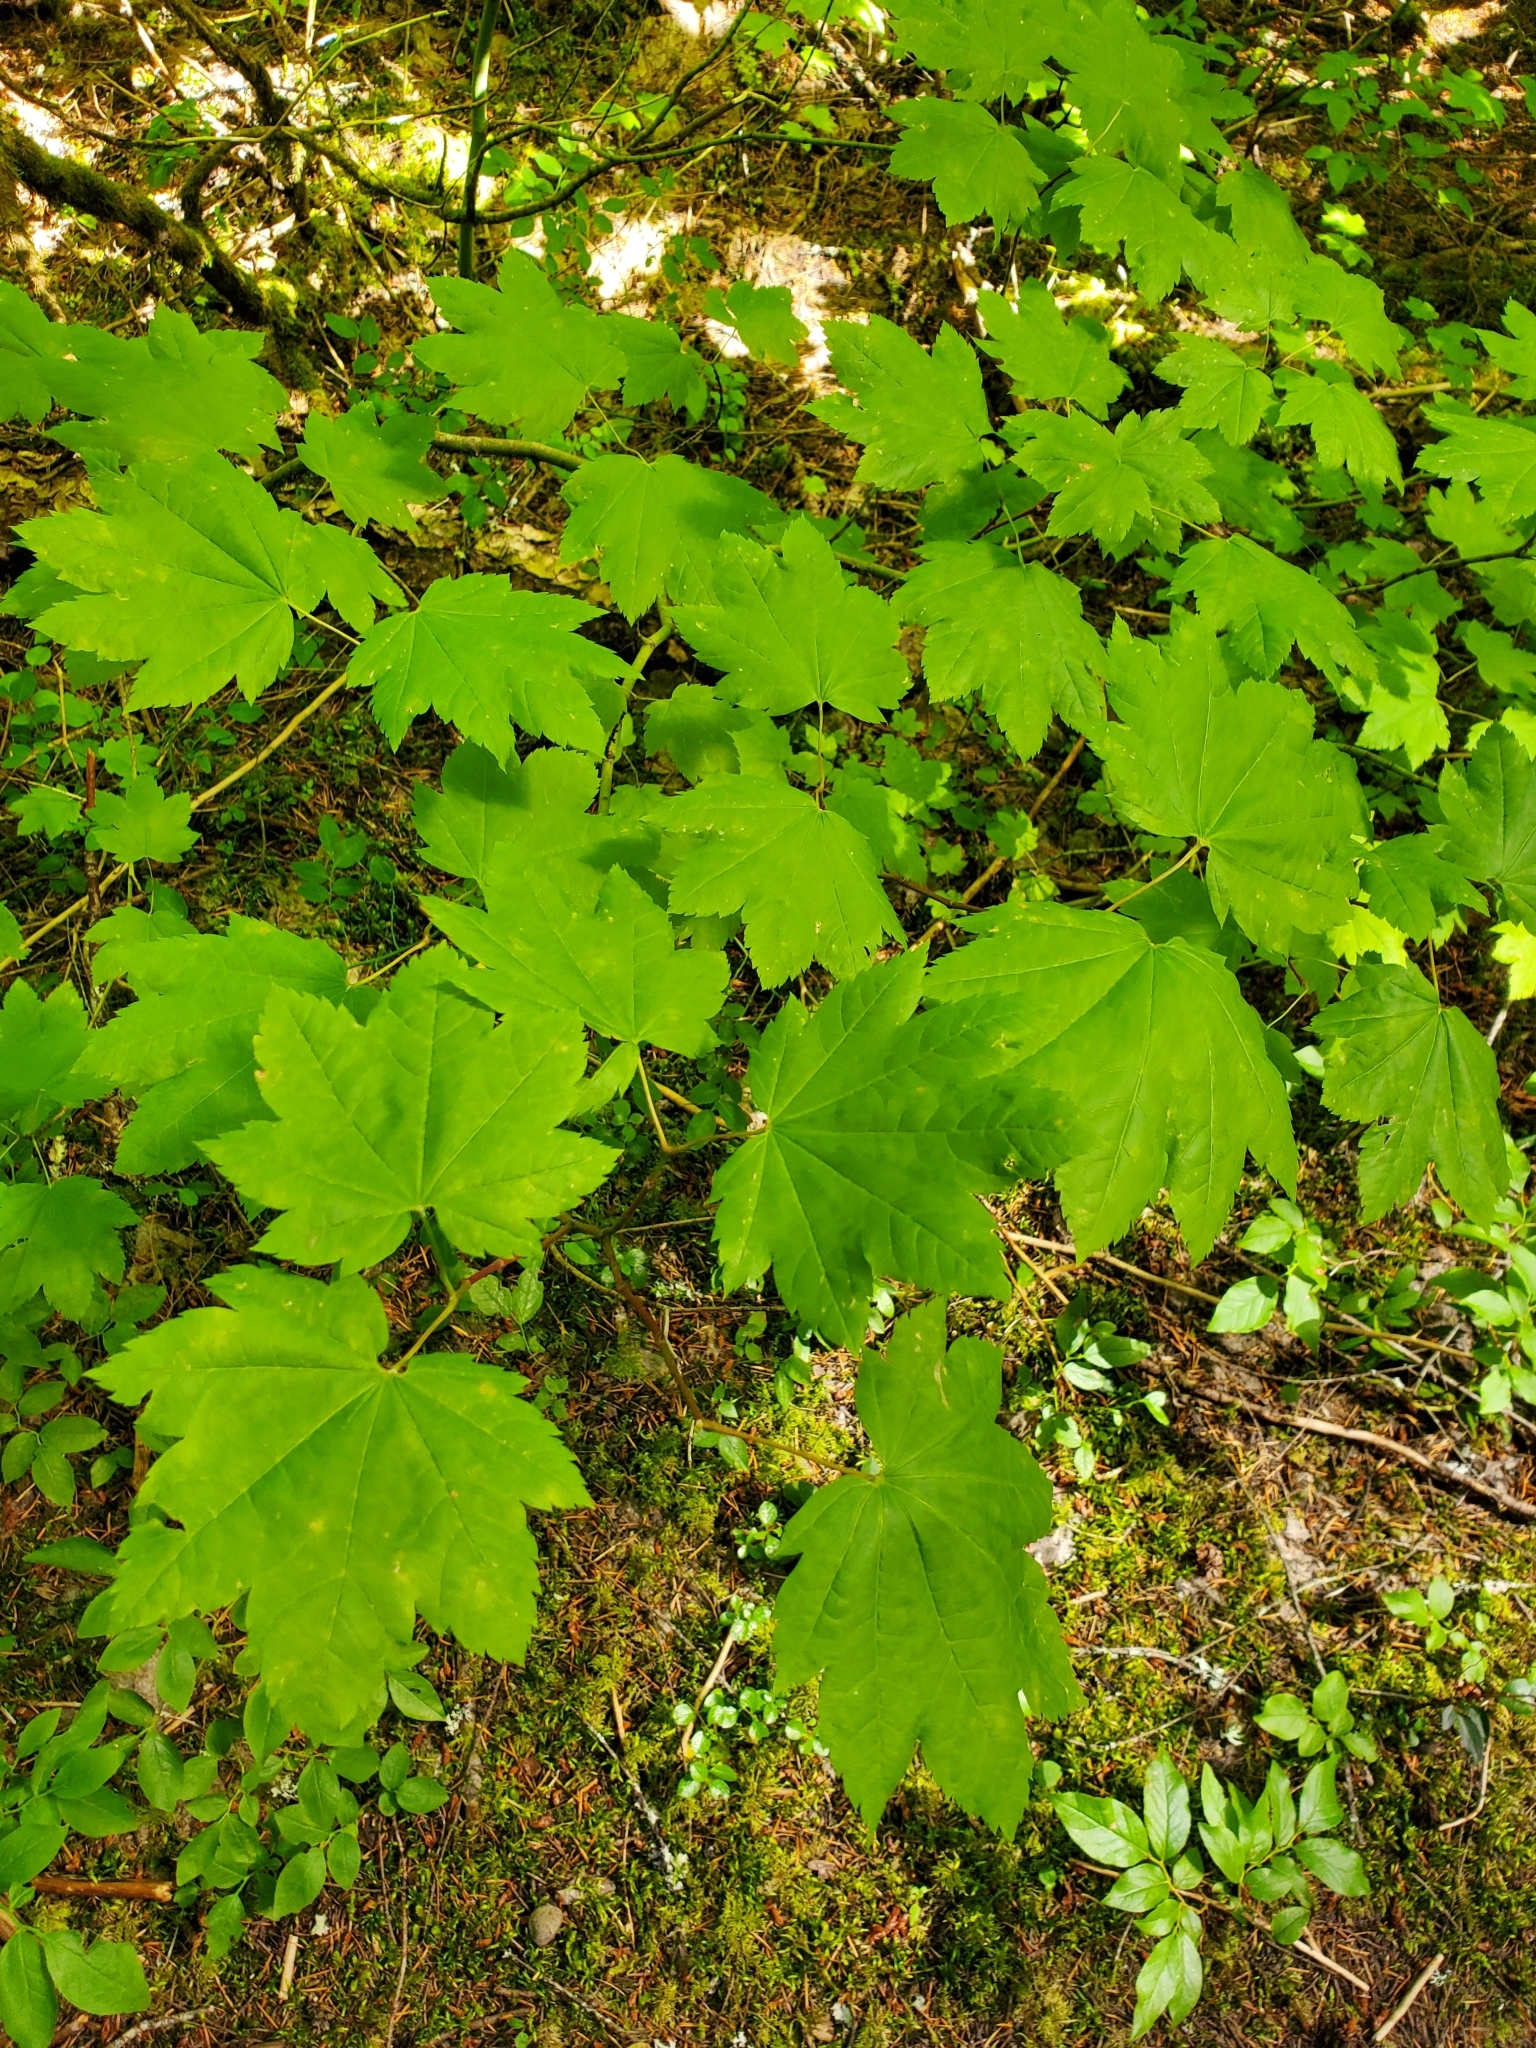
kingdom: Plantae
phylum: Tracheophyta
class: Magnoliopsida
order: Sapindales
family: Sapindaceae
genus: Acer
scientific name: Acer circinatum
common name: Vine maple
